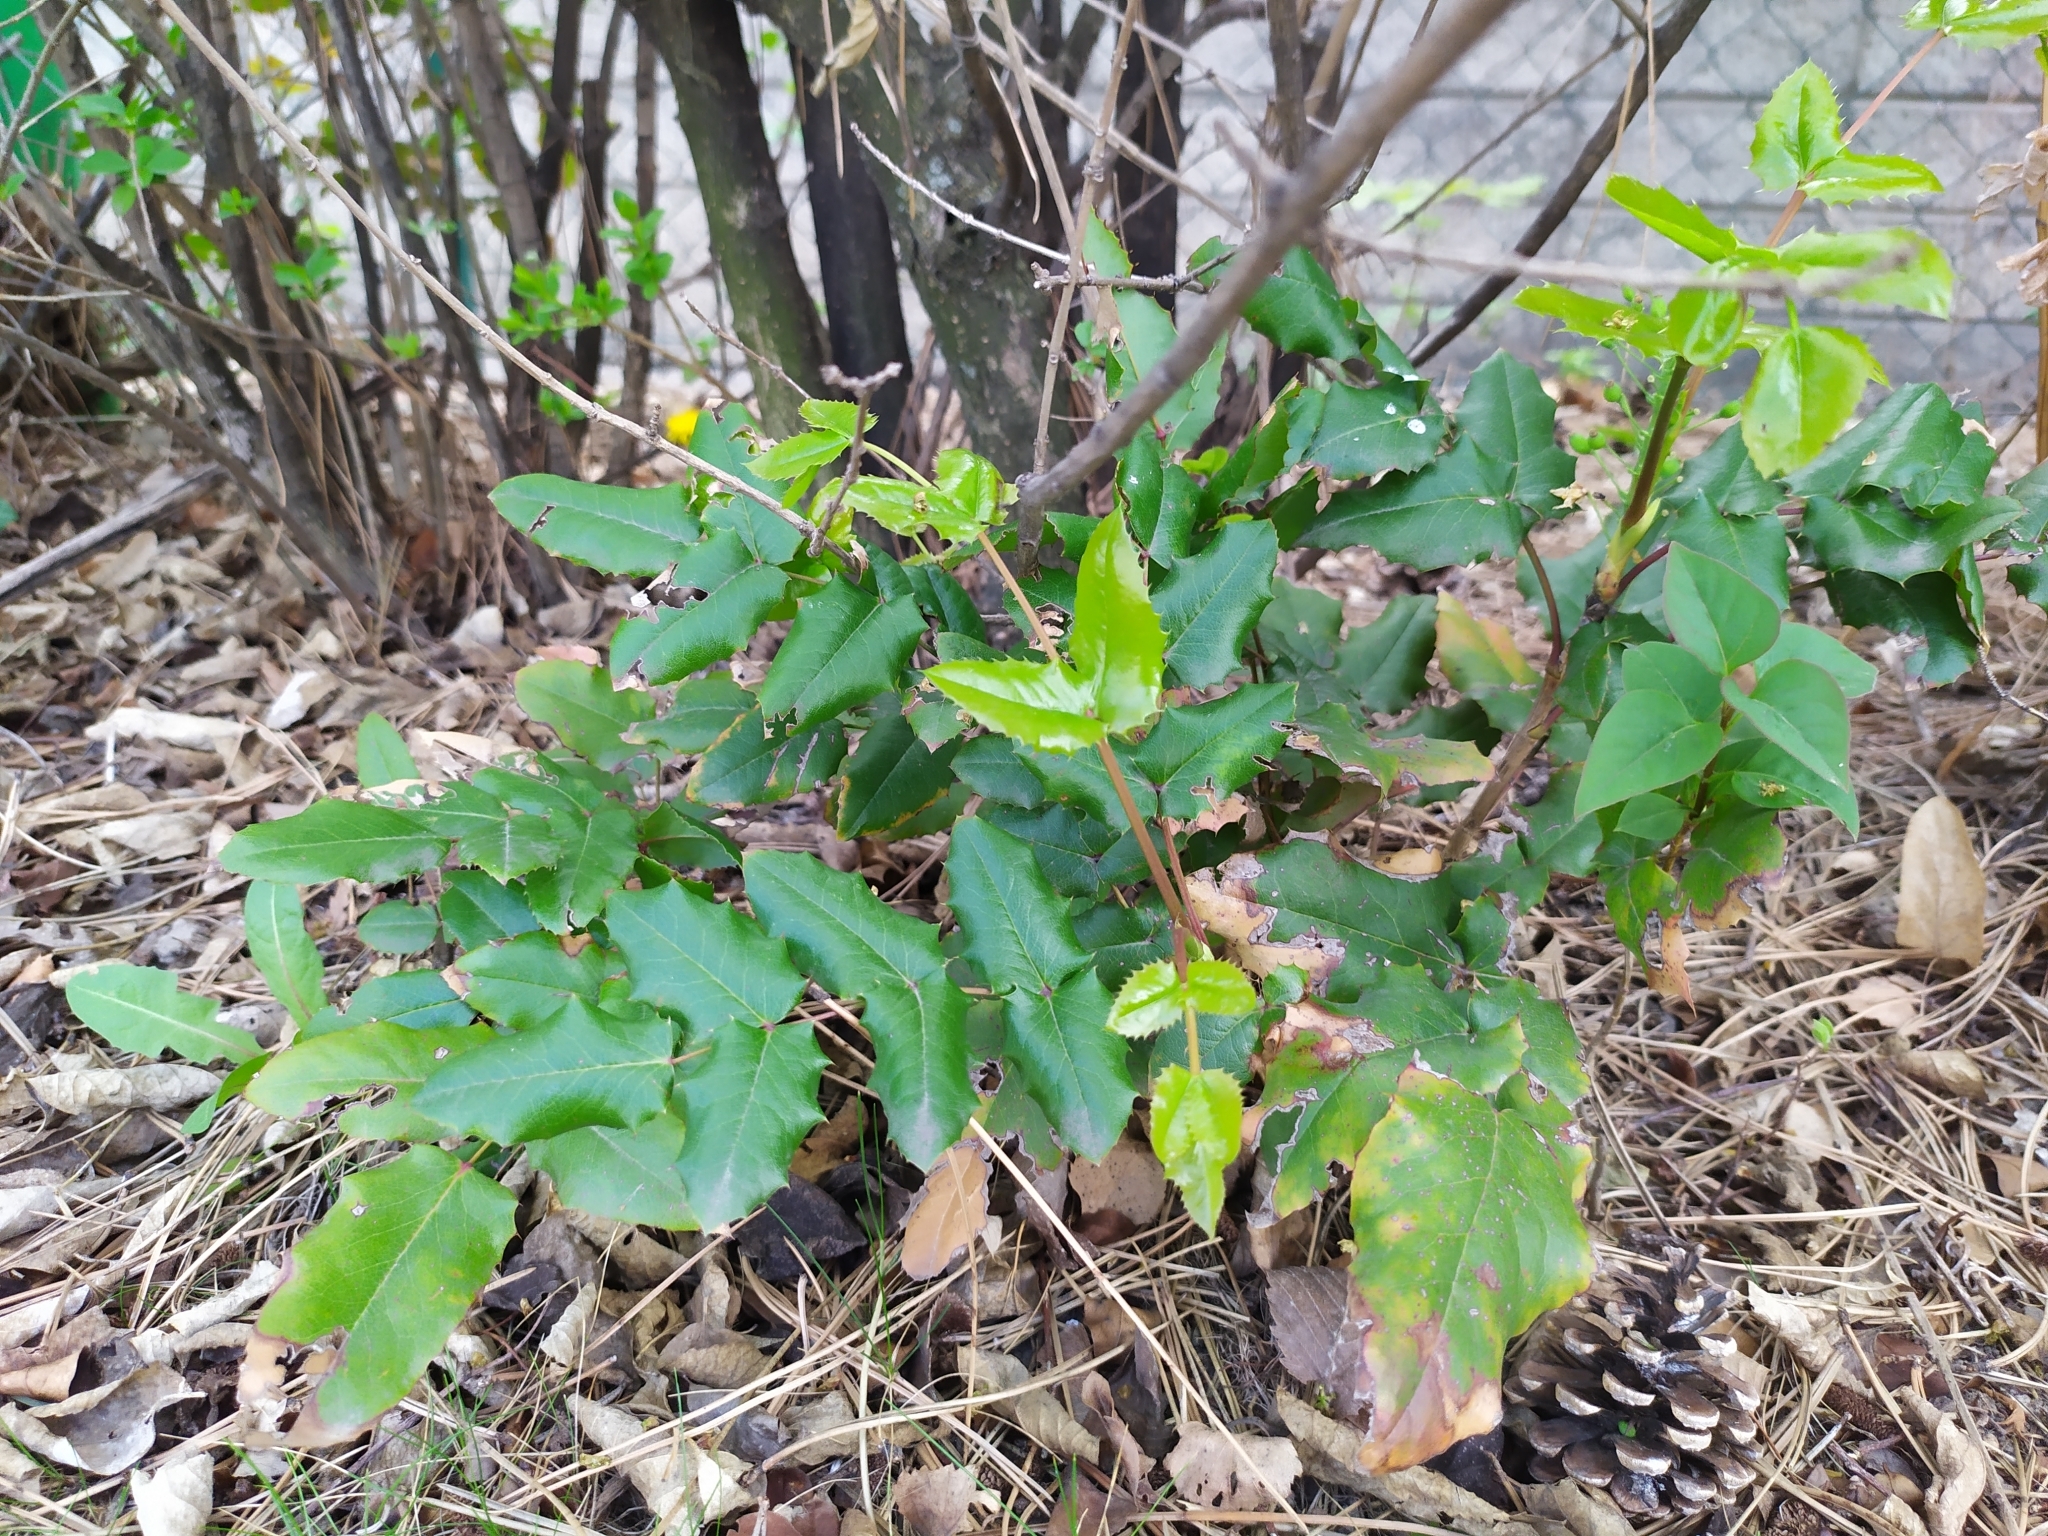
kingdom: Plantae
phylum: Tracheophyta
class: Magnoliopsida
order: Ranunculales
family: Berberidaceae
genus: Mahonia
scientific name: Mahonia aquifolium
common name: Oregon-grape
